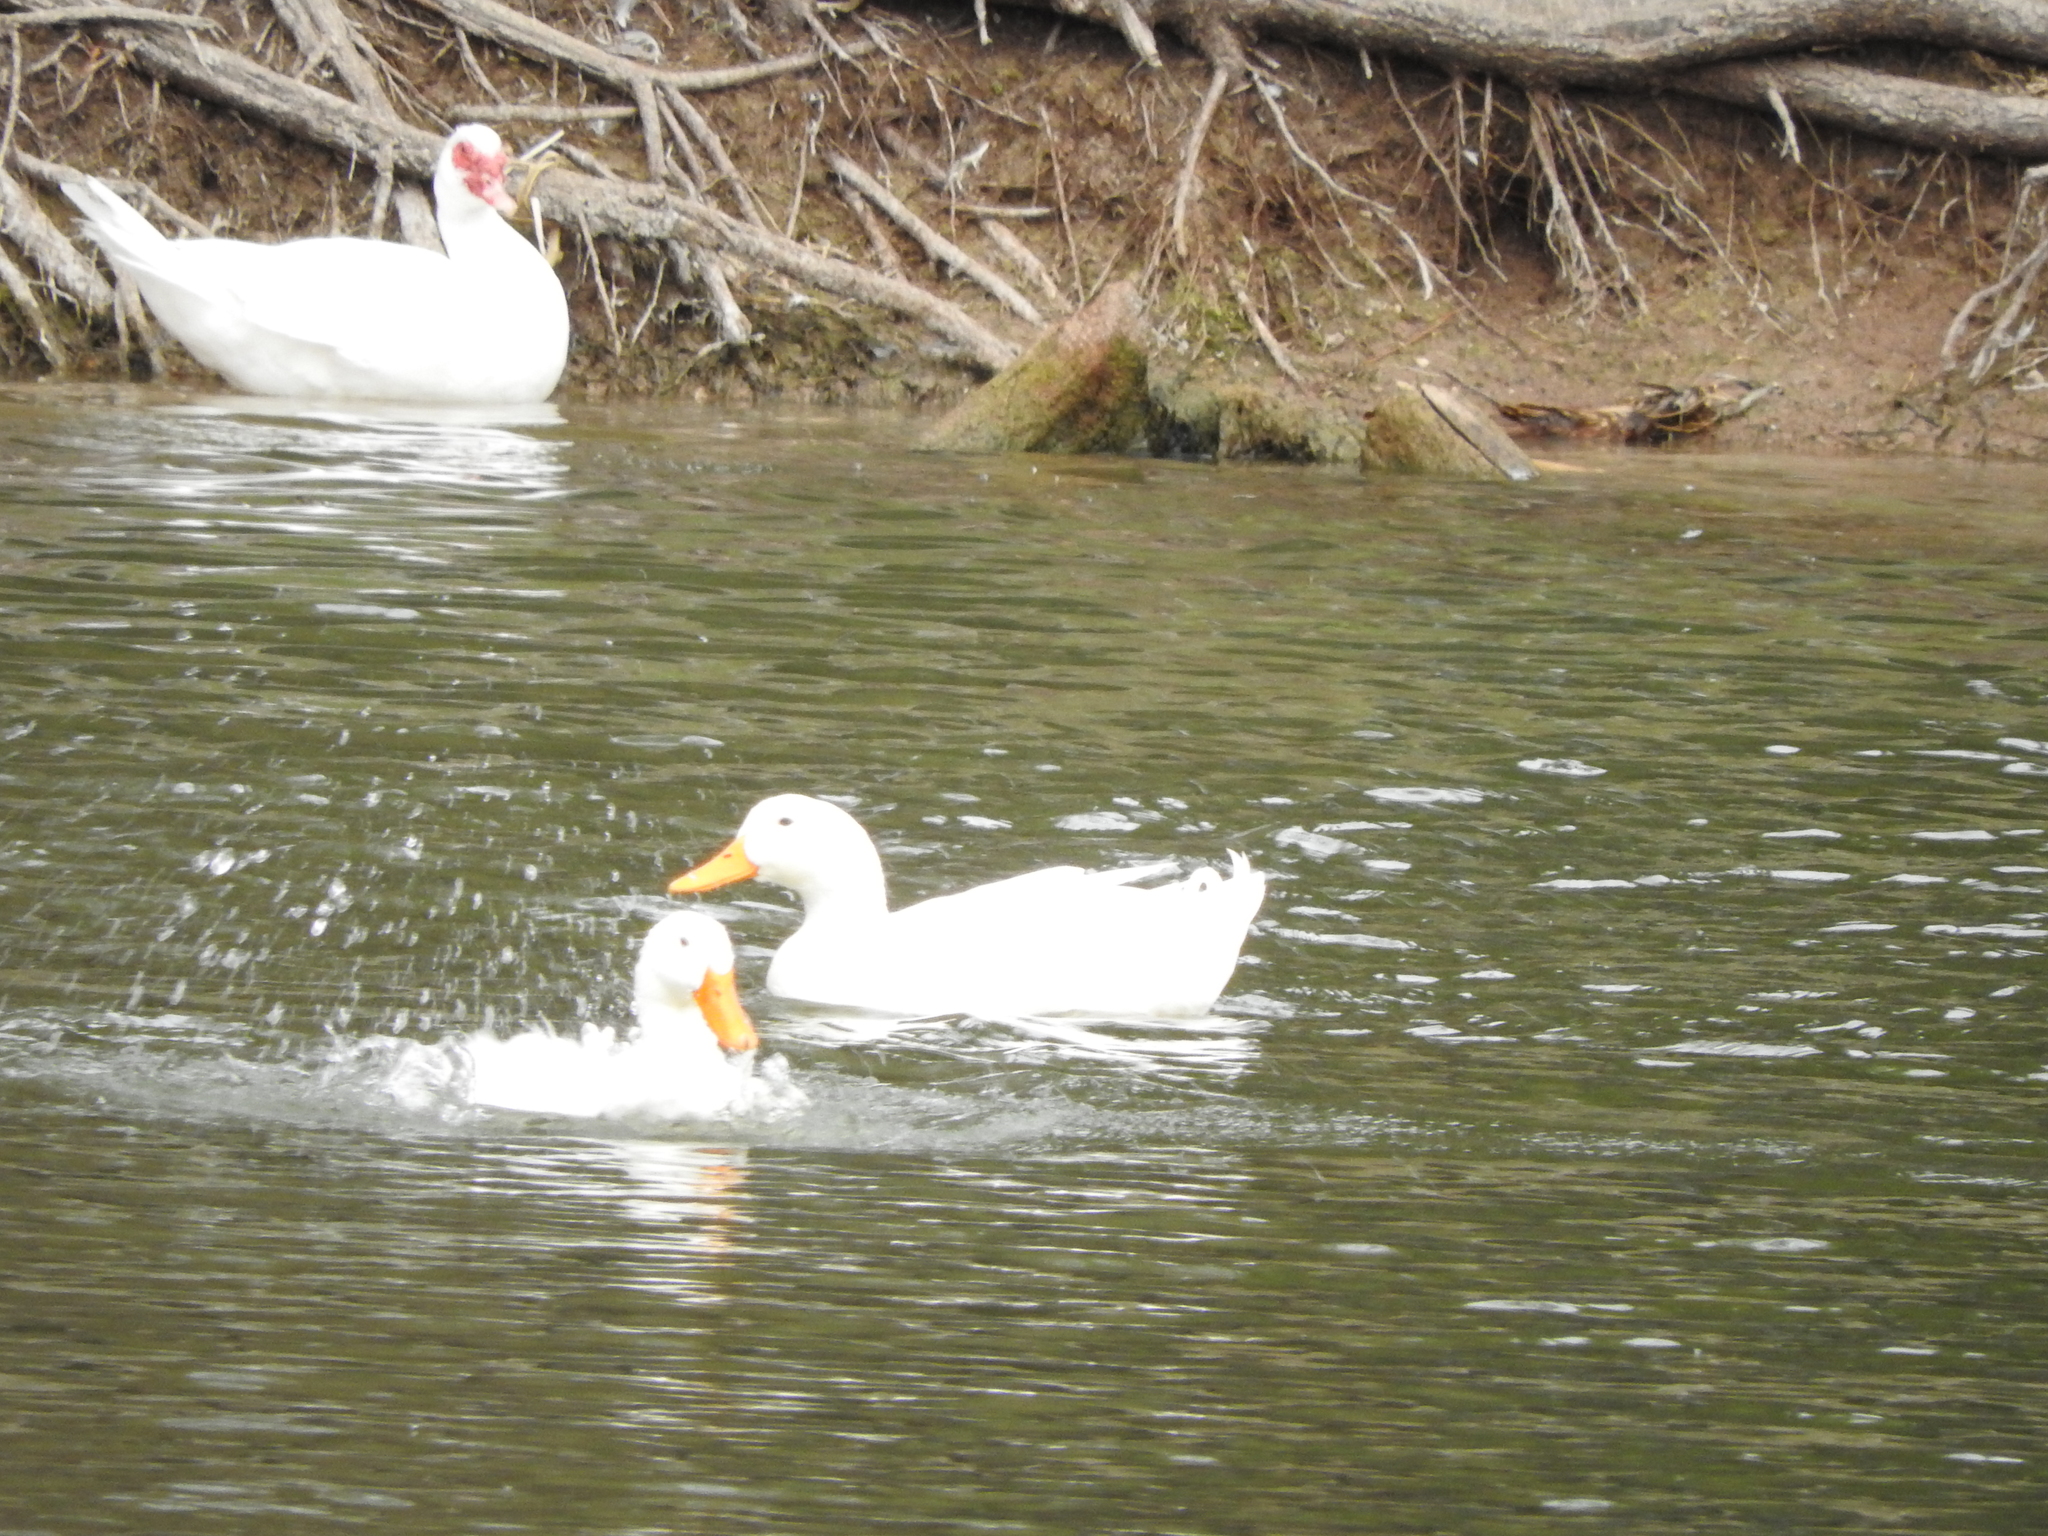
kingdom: Animalia
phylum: Chordata
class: Aves
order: Anseriformes
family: Anatidae
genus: Anas
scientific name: Anas platyrhynchos
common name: Mallard
